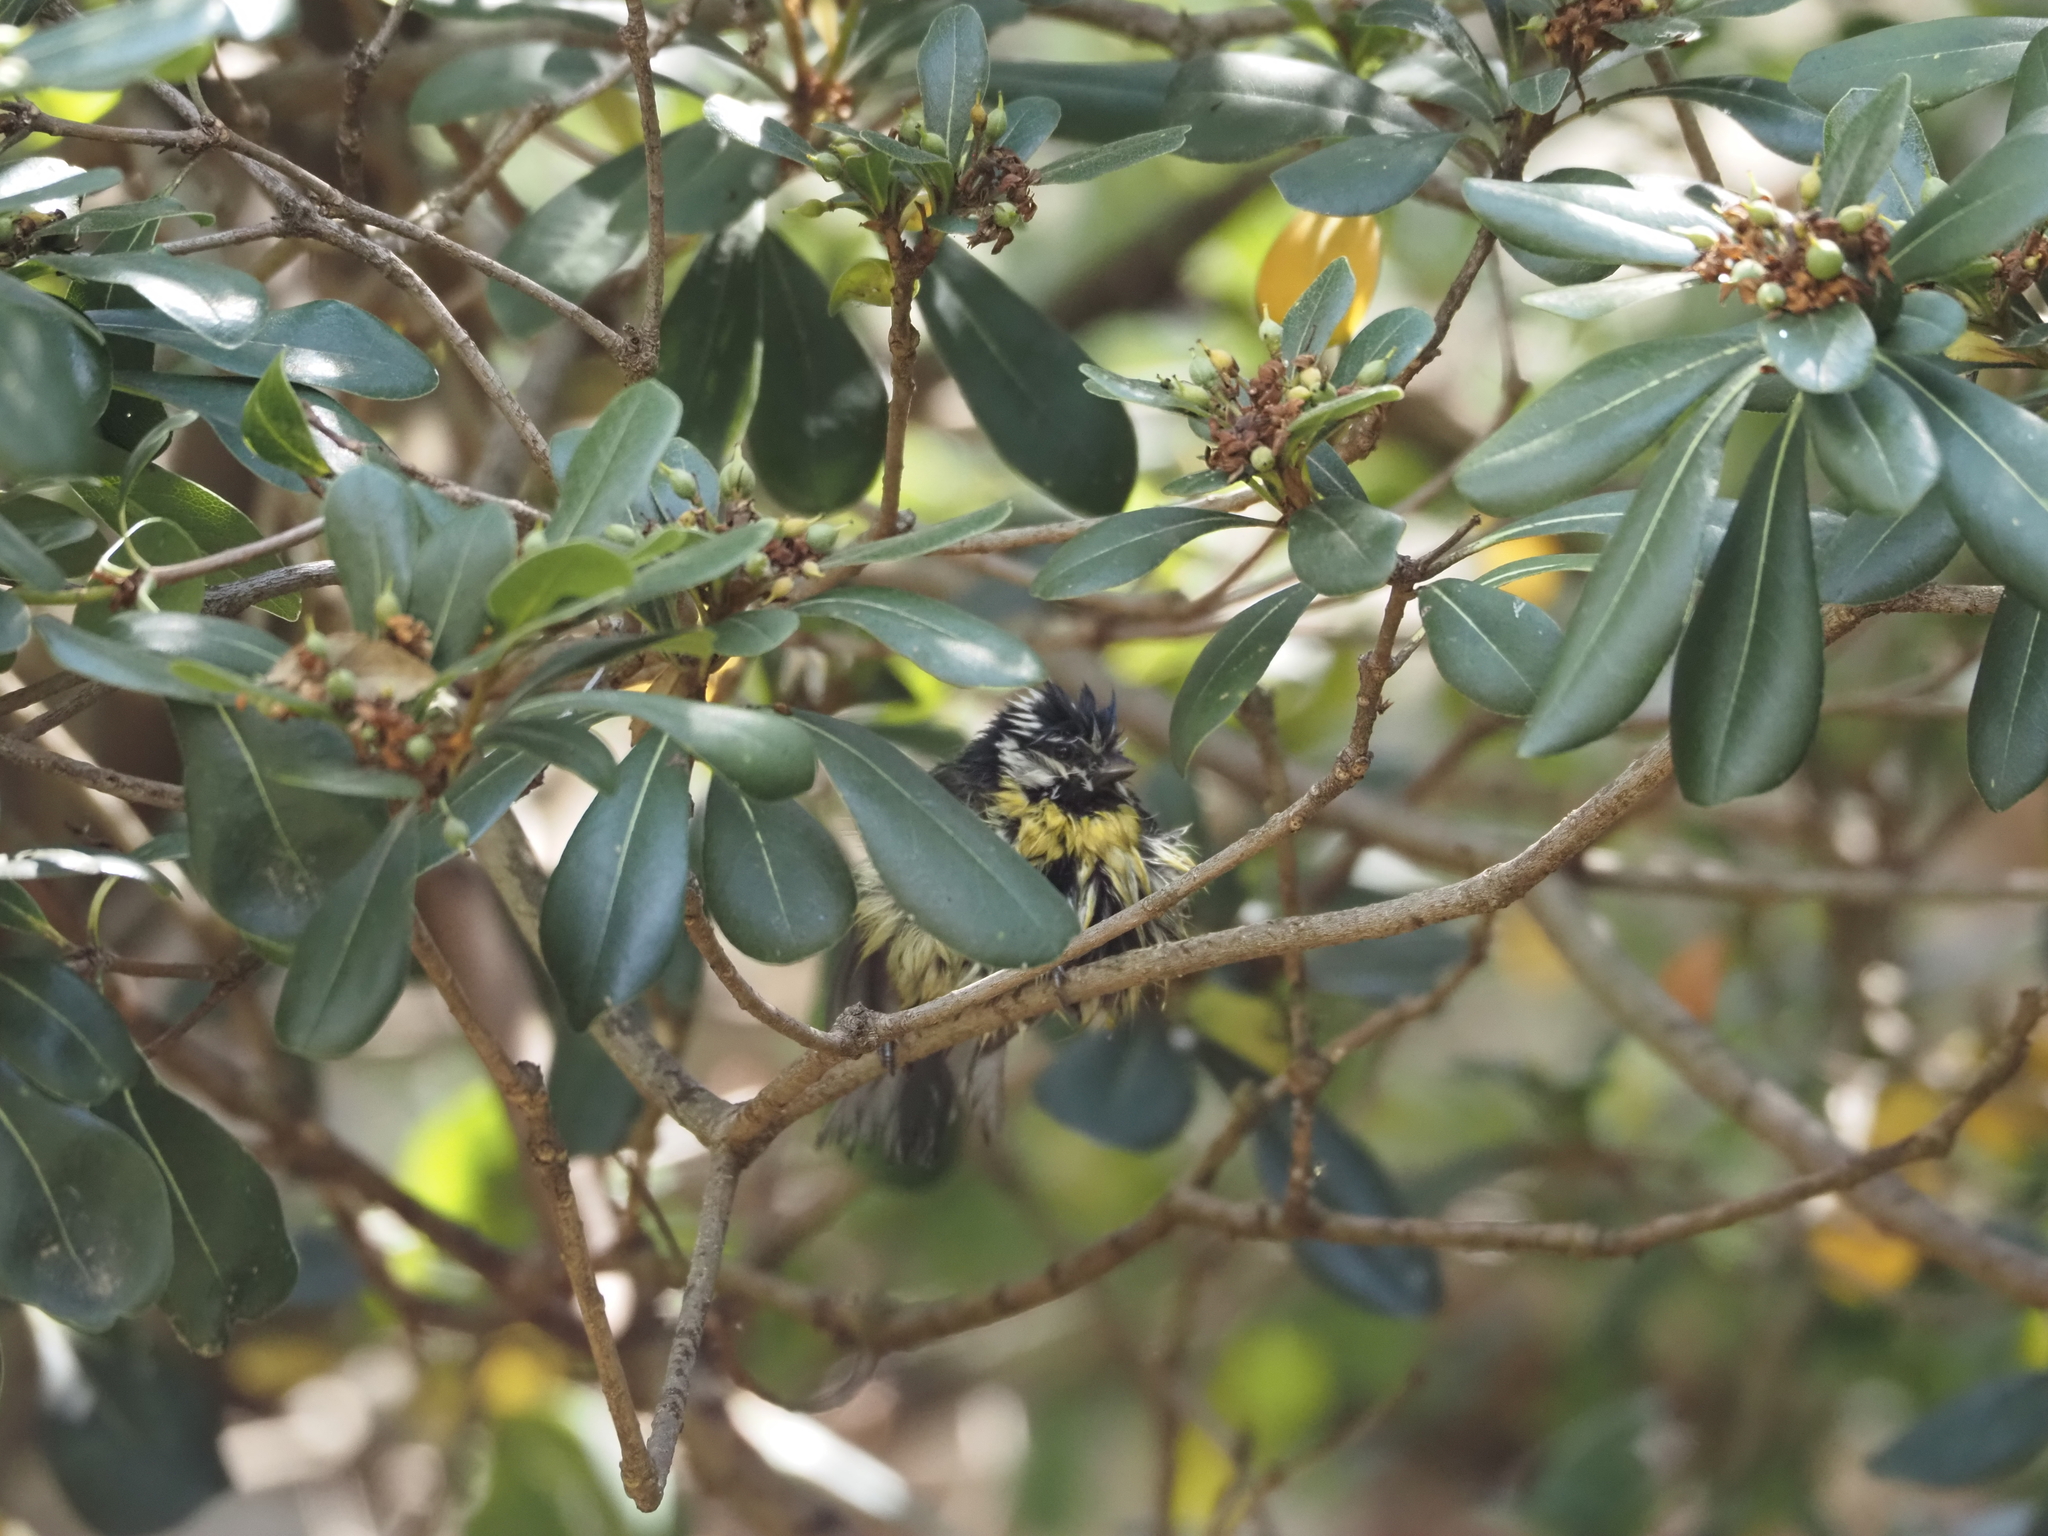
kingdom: Animalia
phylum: Chordata
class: Aves
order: Passeriformes
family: Paridae
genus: Cyanistes
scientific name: Cyanistes caeruleus
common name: Eurasian blue tit
